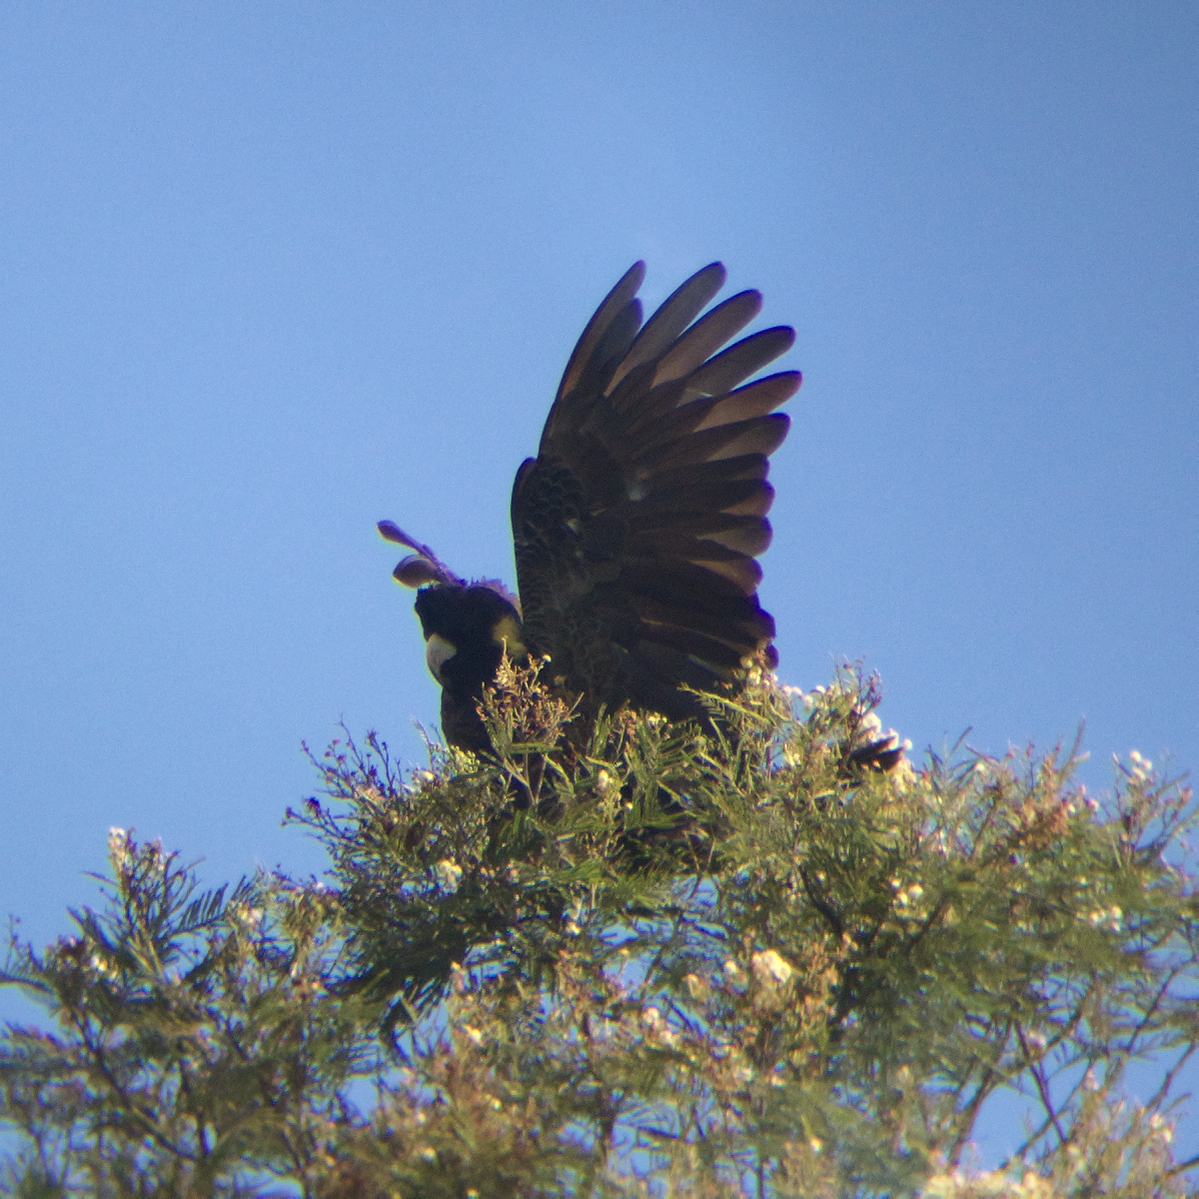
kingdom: Animalia
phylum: Chordata
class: Aves
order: Psittaciformes
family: Cacatuidae
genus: Zanda
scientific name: Zanda funerea
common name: Yellow-tailed black-cockatoo
